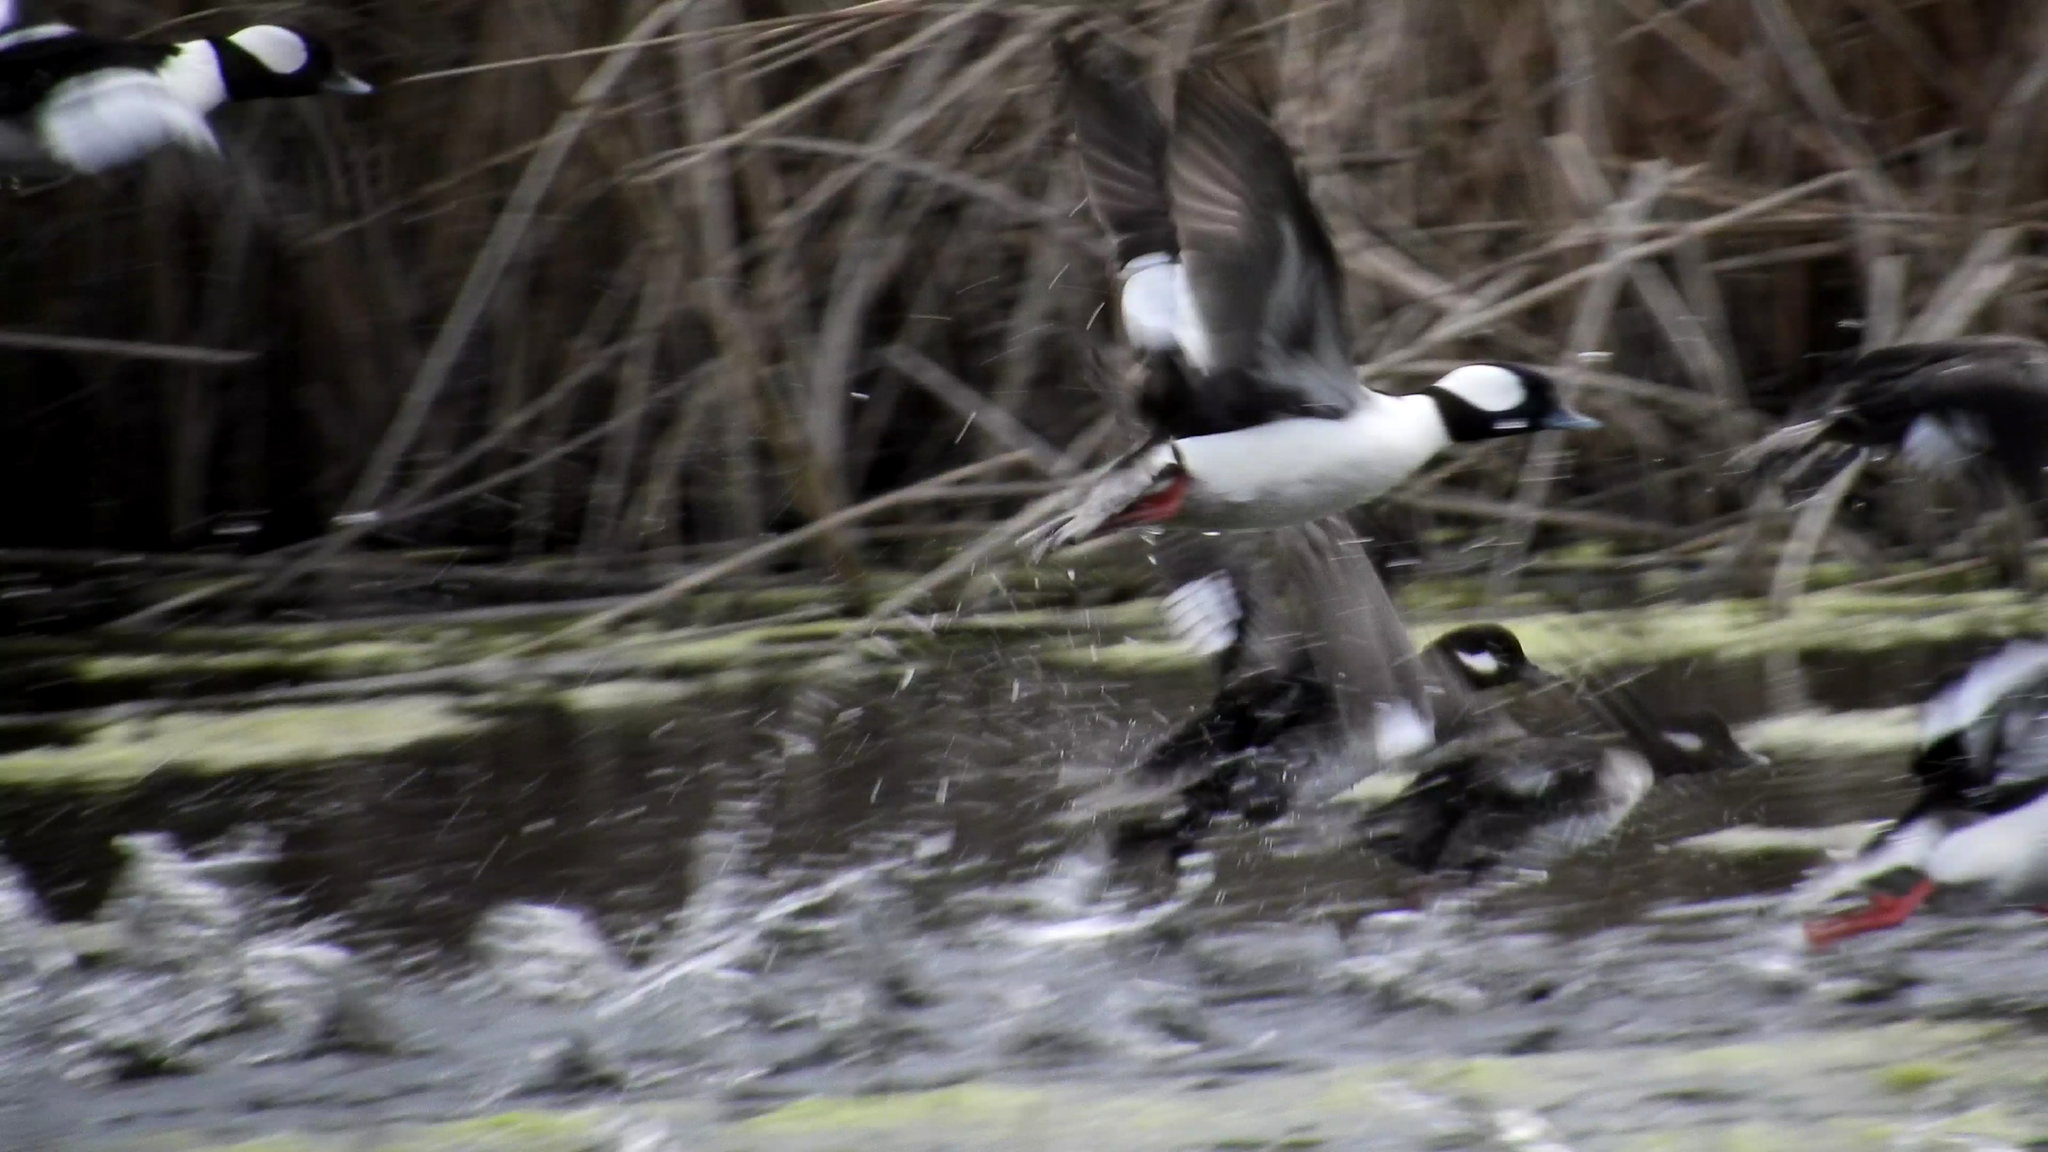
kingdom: Animalia
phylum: Chordata
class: Aves
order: Anseriformes
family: Anatidae
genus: Bucephala
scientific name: Bucephala albeola
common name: Bufflehead
